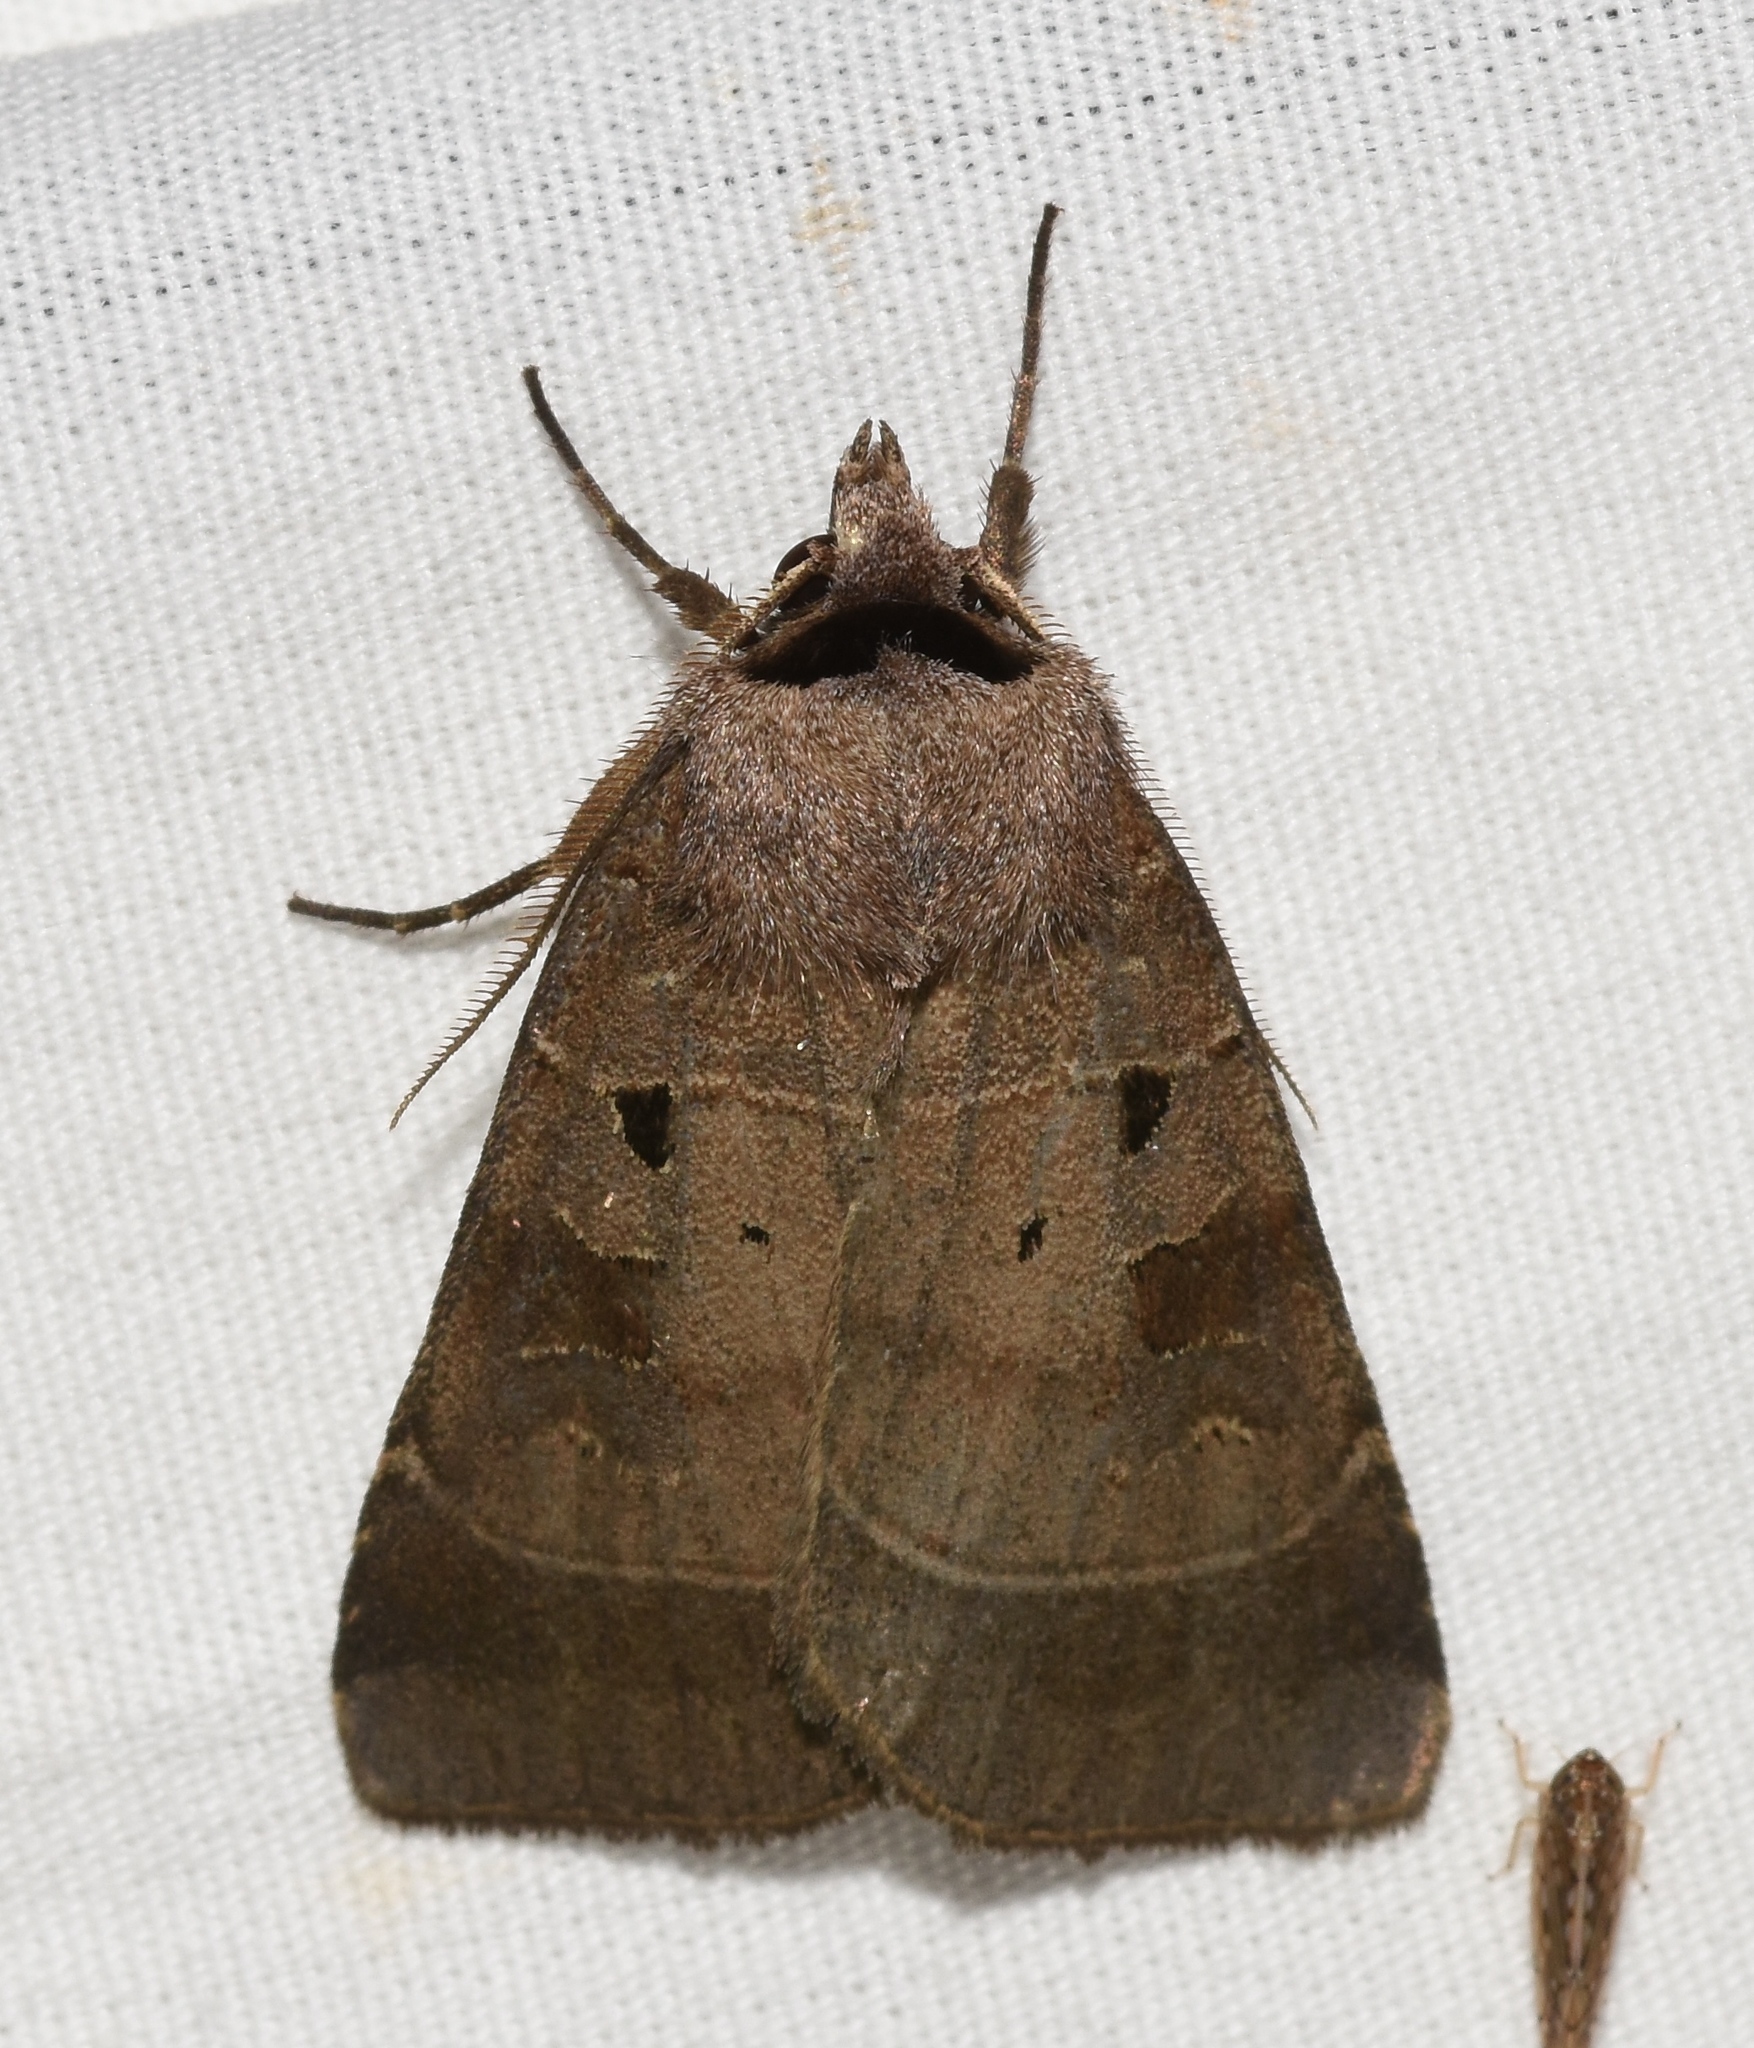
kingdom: Animalia
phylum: Arthropoda
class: Insecta
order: Lepidoptera
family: Noctuidae
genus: Agnorisma
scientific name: Agnorisma badinodis
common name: Pale-banded dart
